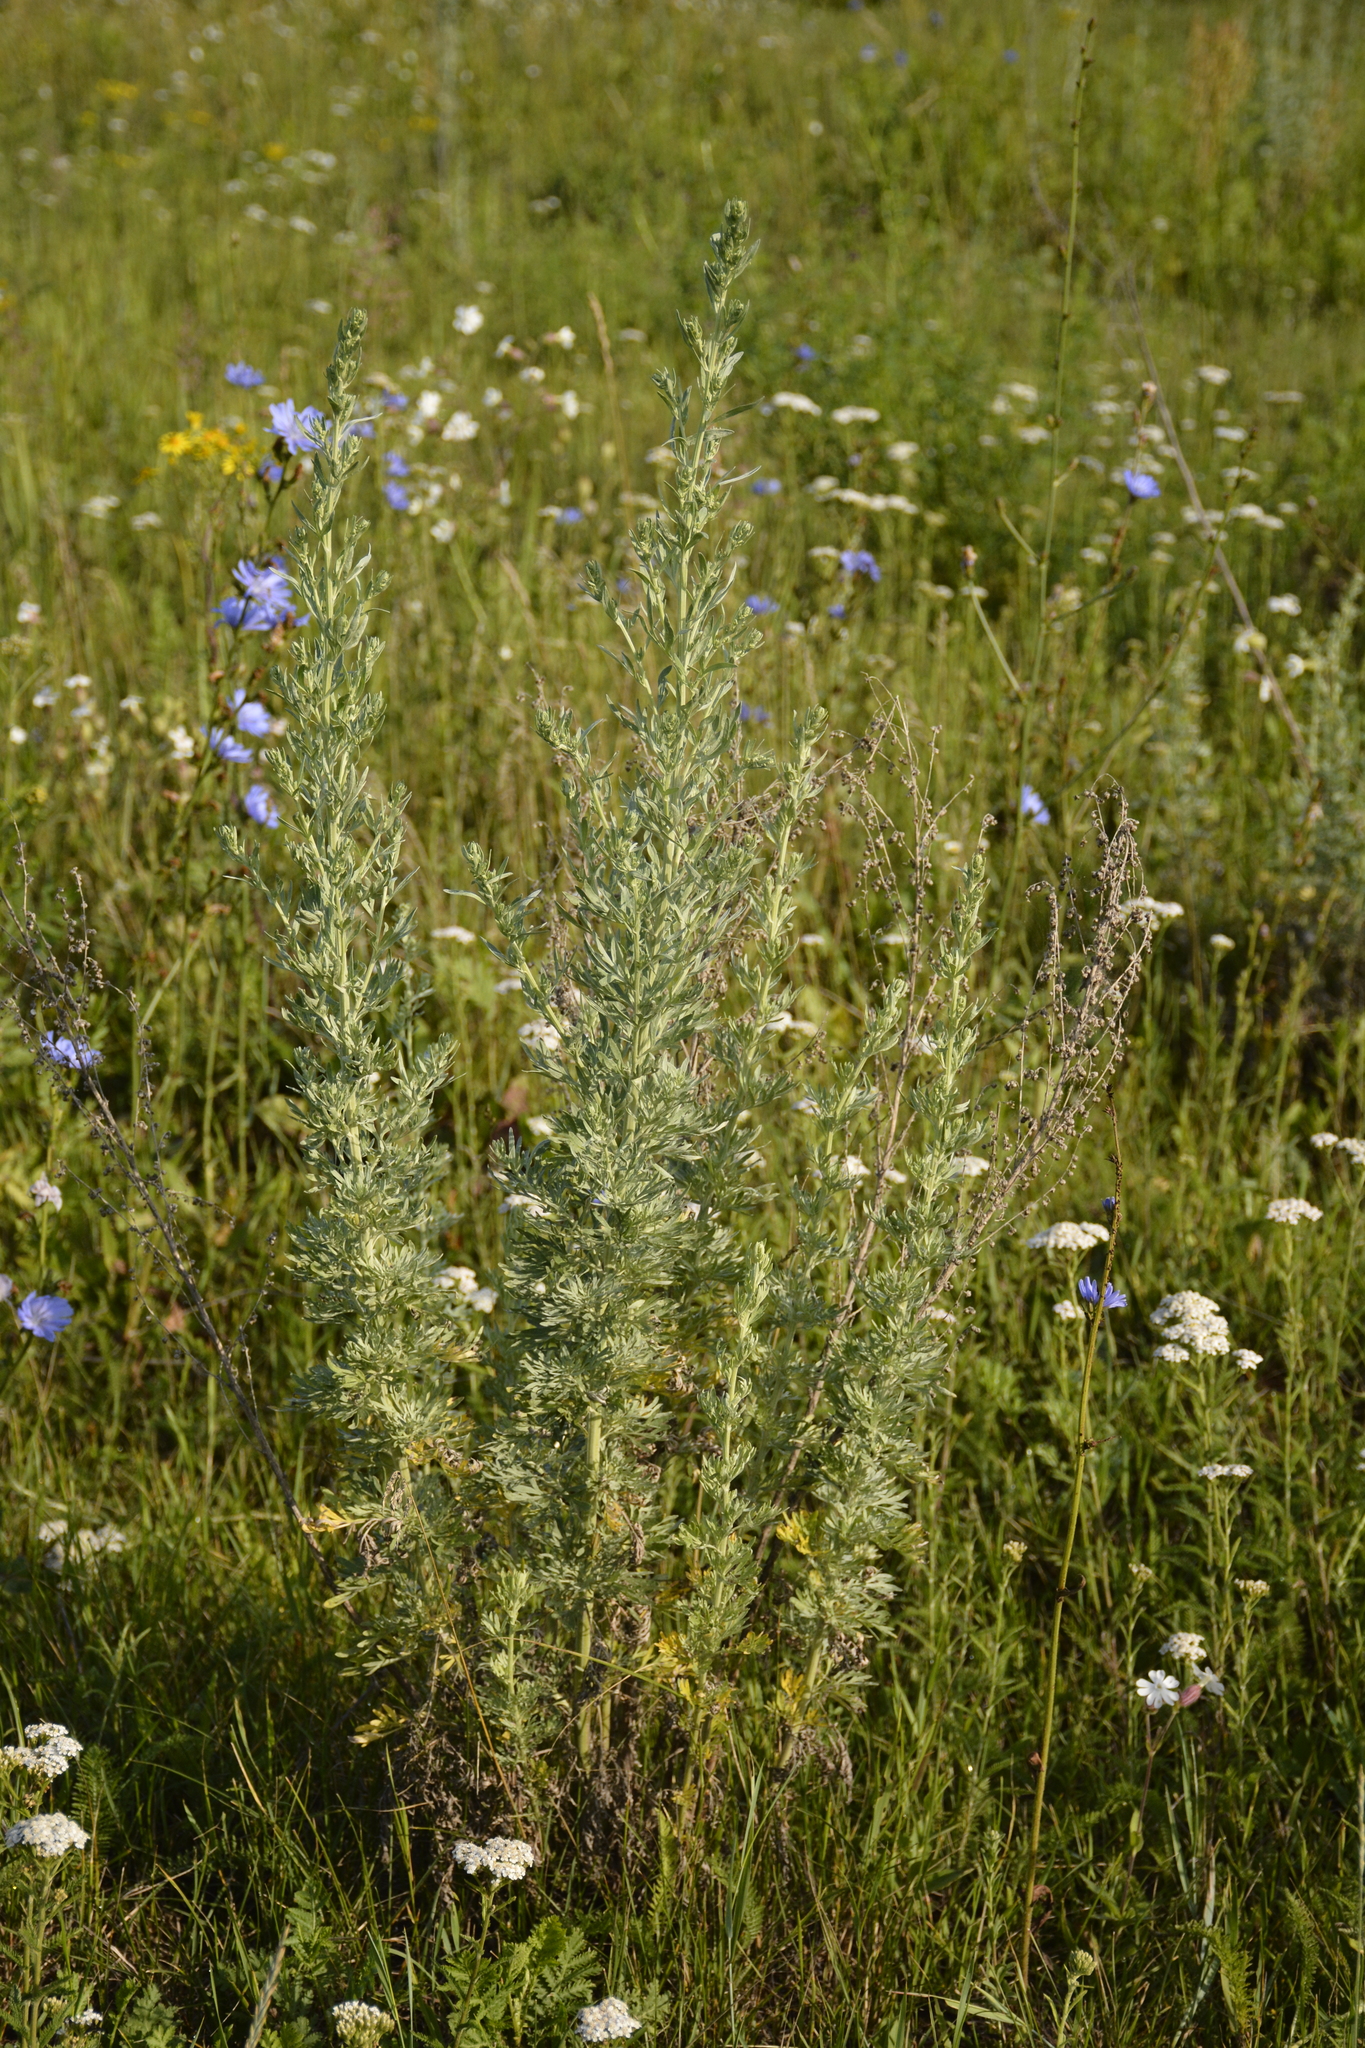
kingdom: Plantae
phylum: Tracheophyta
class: Magnoliopsida
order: Asterales
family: Asteraceae
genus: Artemisia
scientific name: Artemisia absinthium
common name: Wormwood
